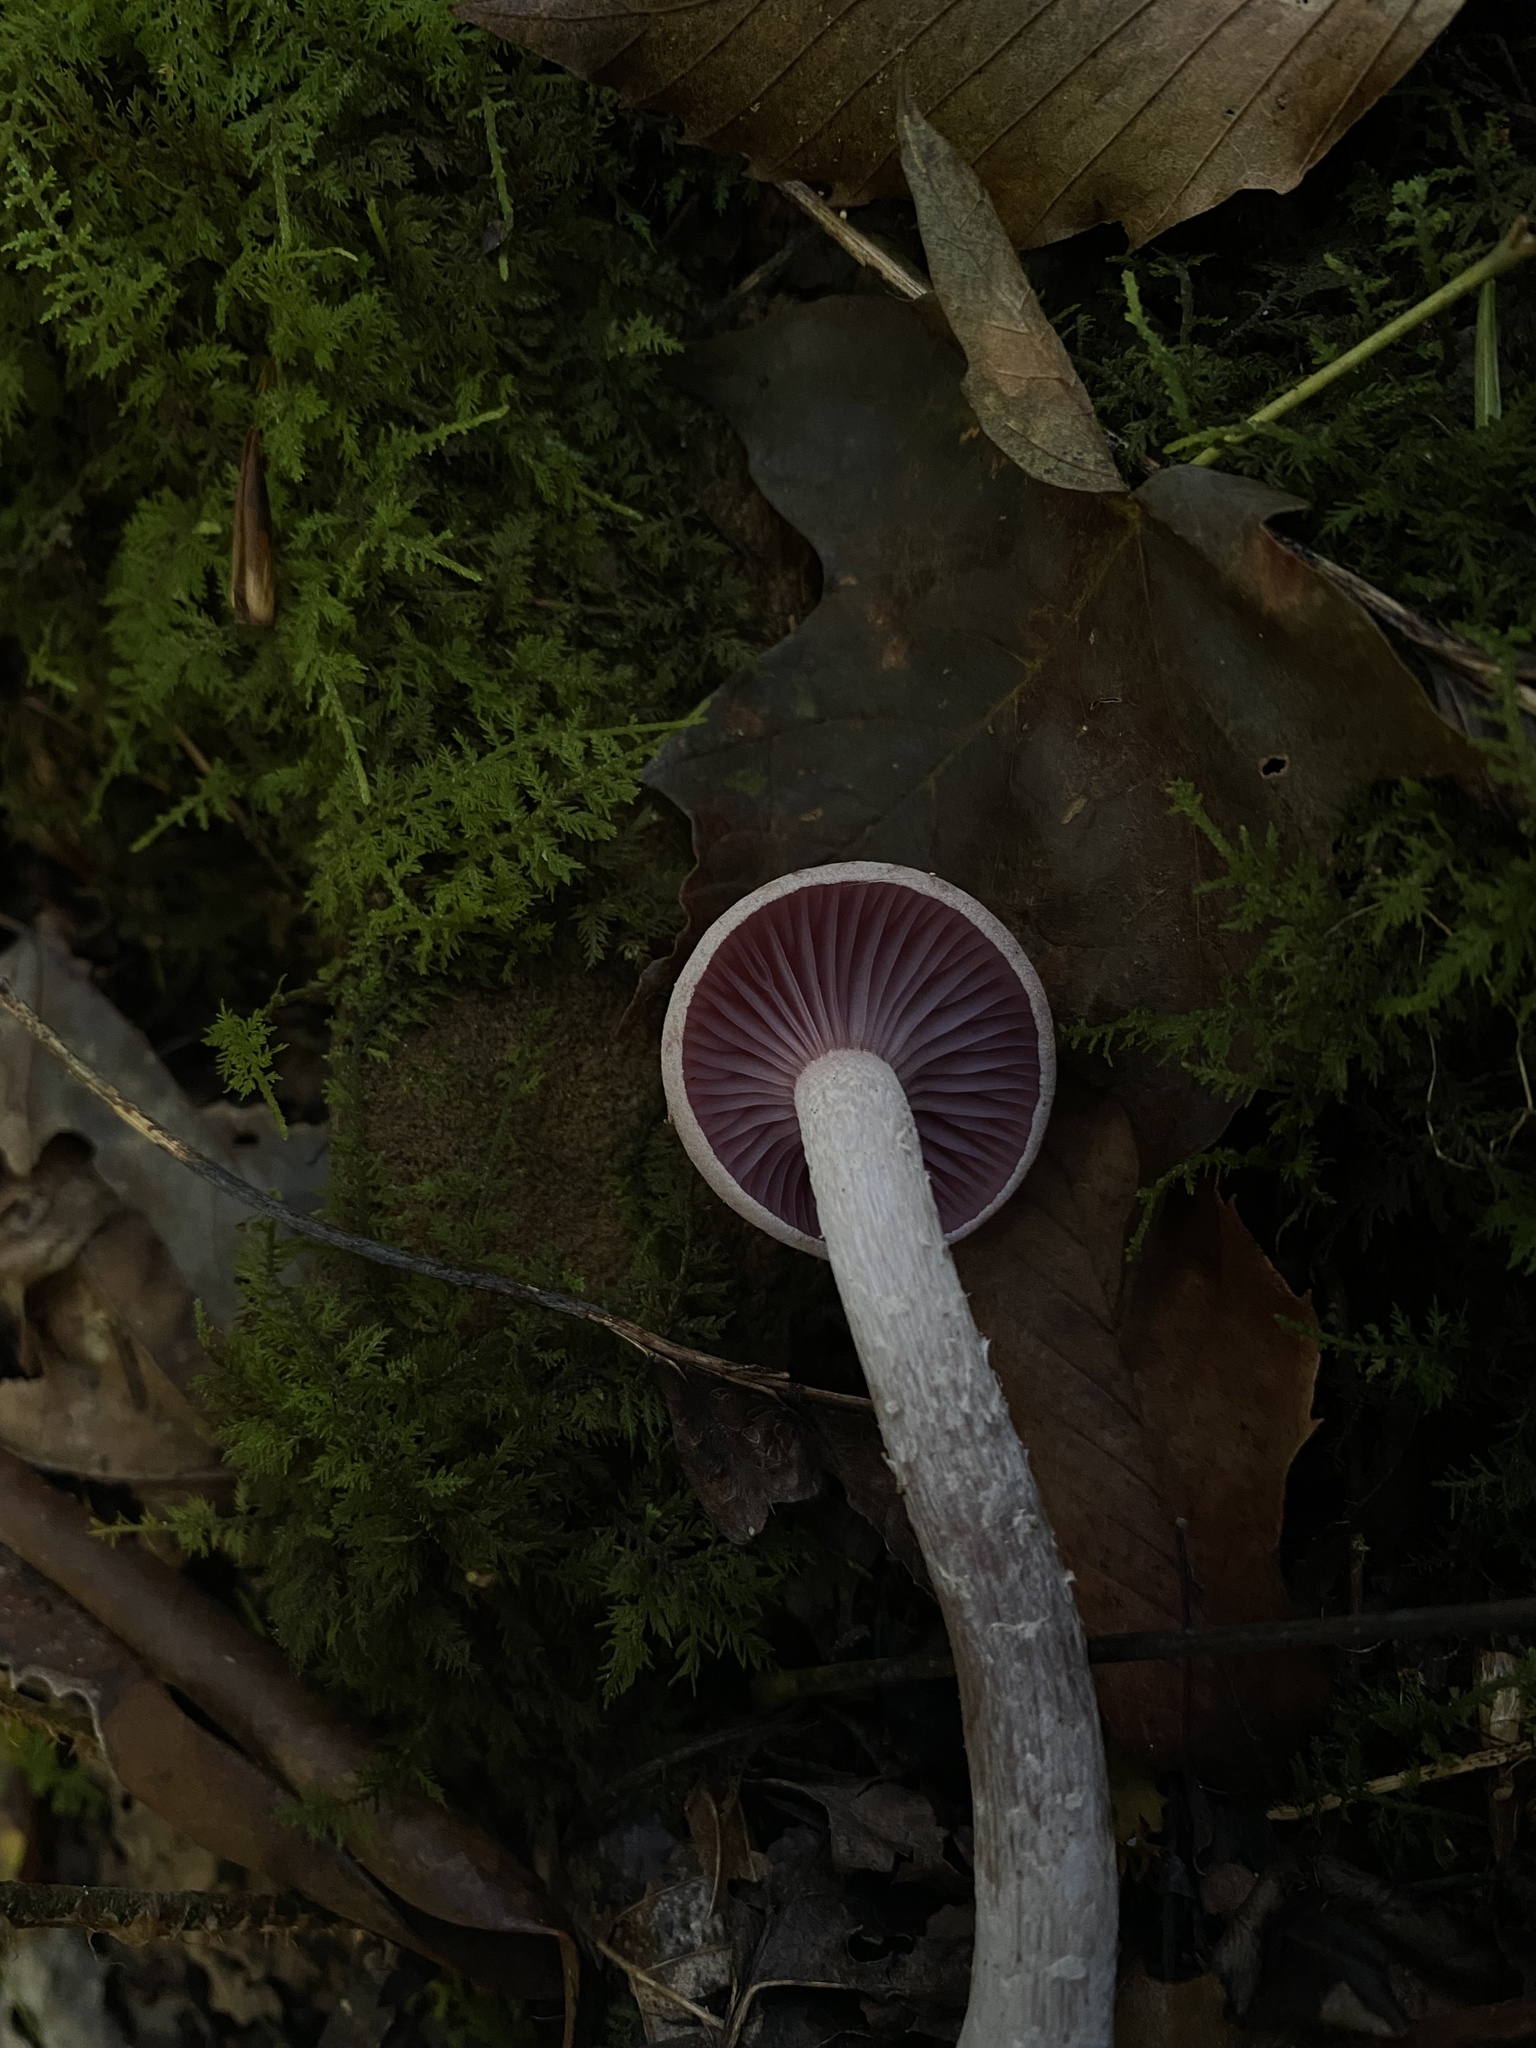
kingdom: Fungi
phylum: Basidiomycota
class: Agaricomycetes
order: Agaricales
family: Hydnangiaceae
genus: Laccaria
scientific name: Laccaria ochropurpurea
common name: Purple laccaria
